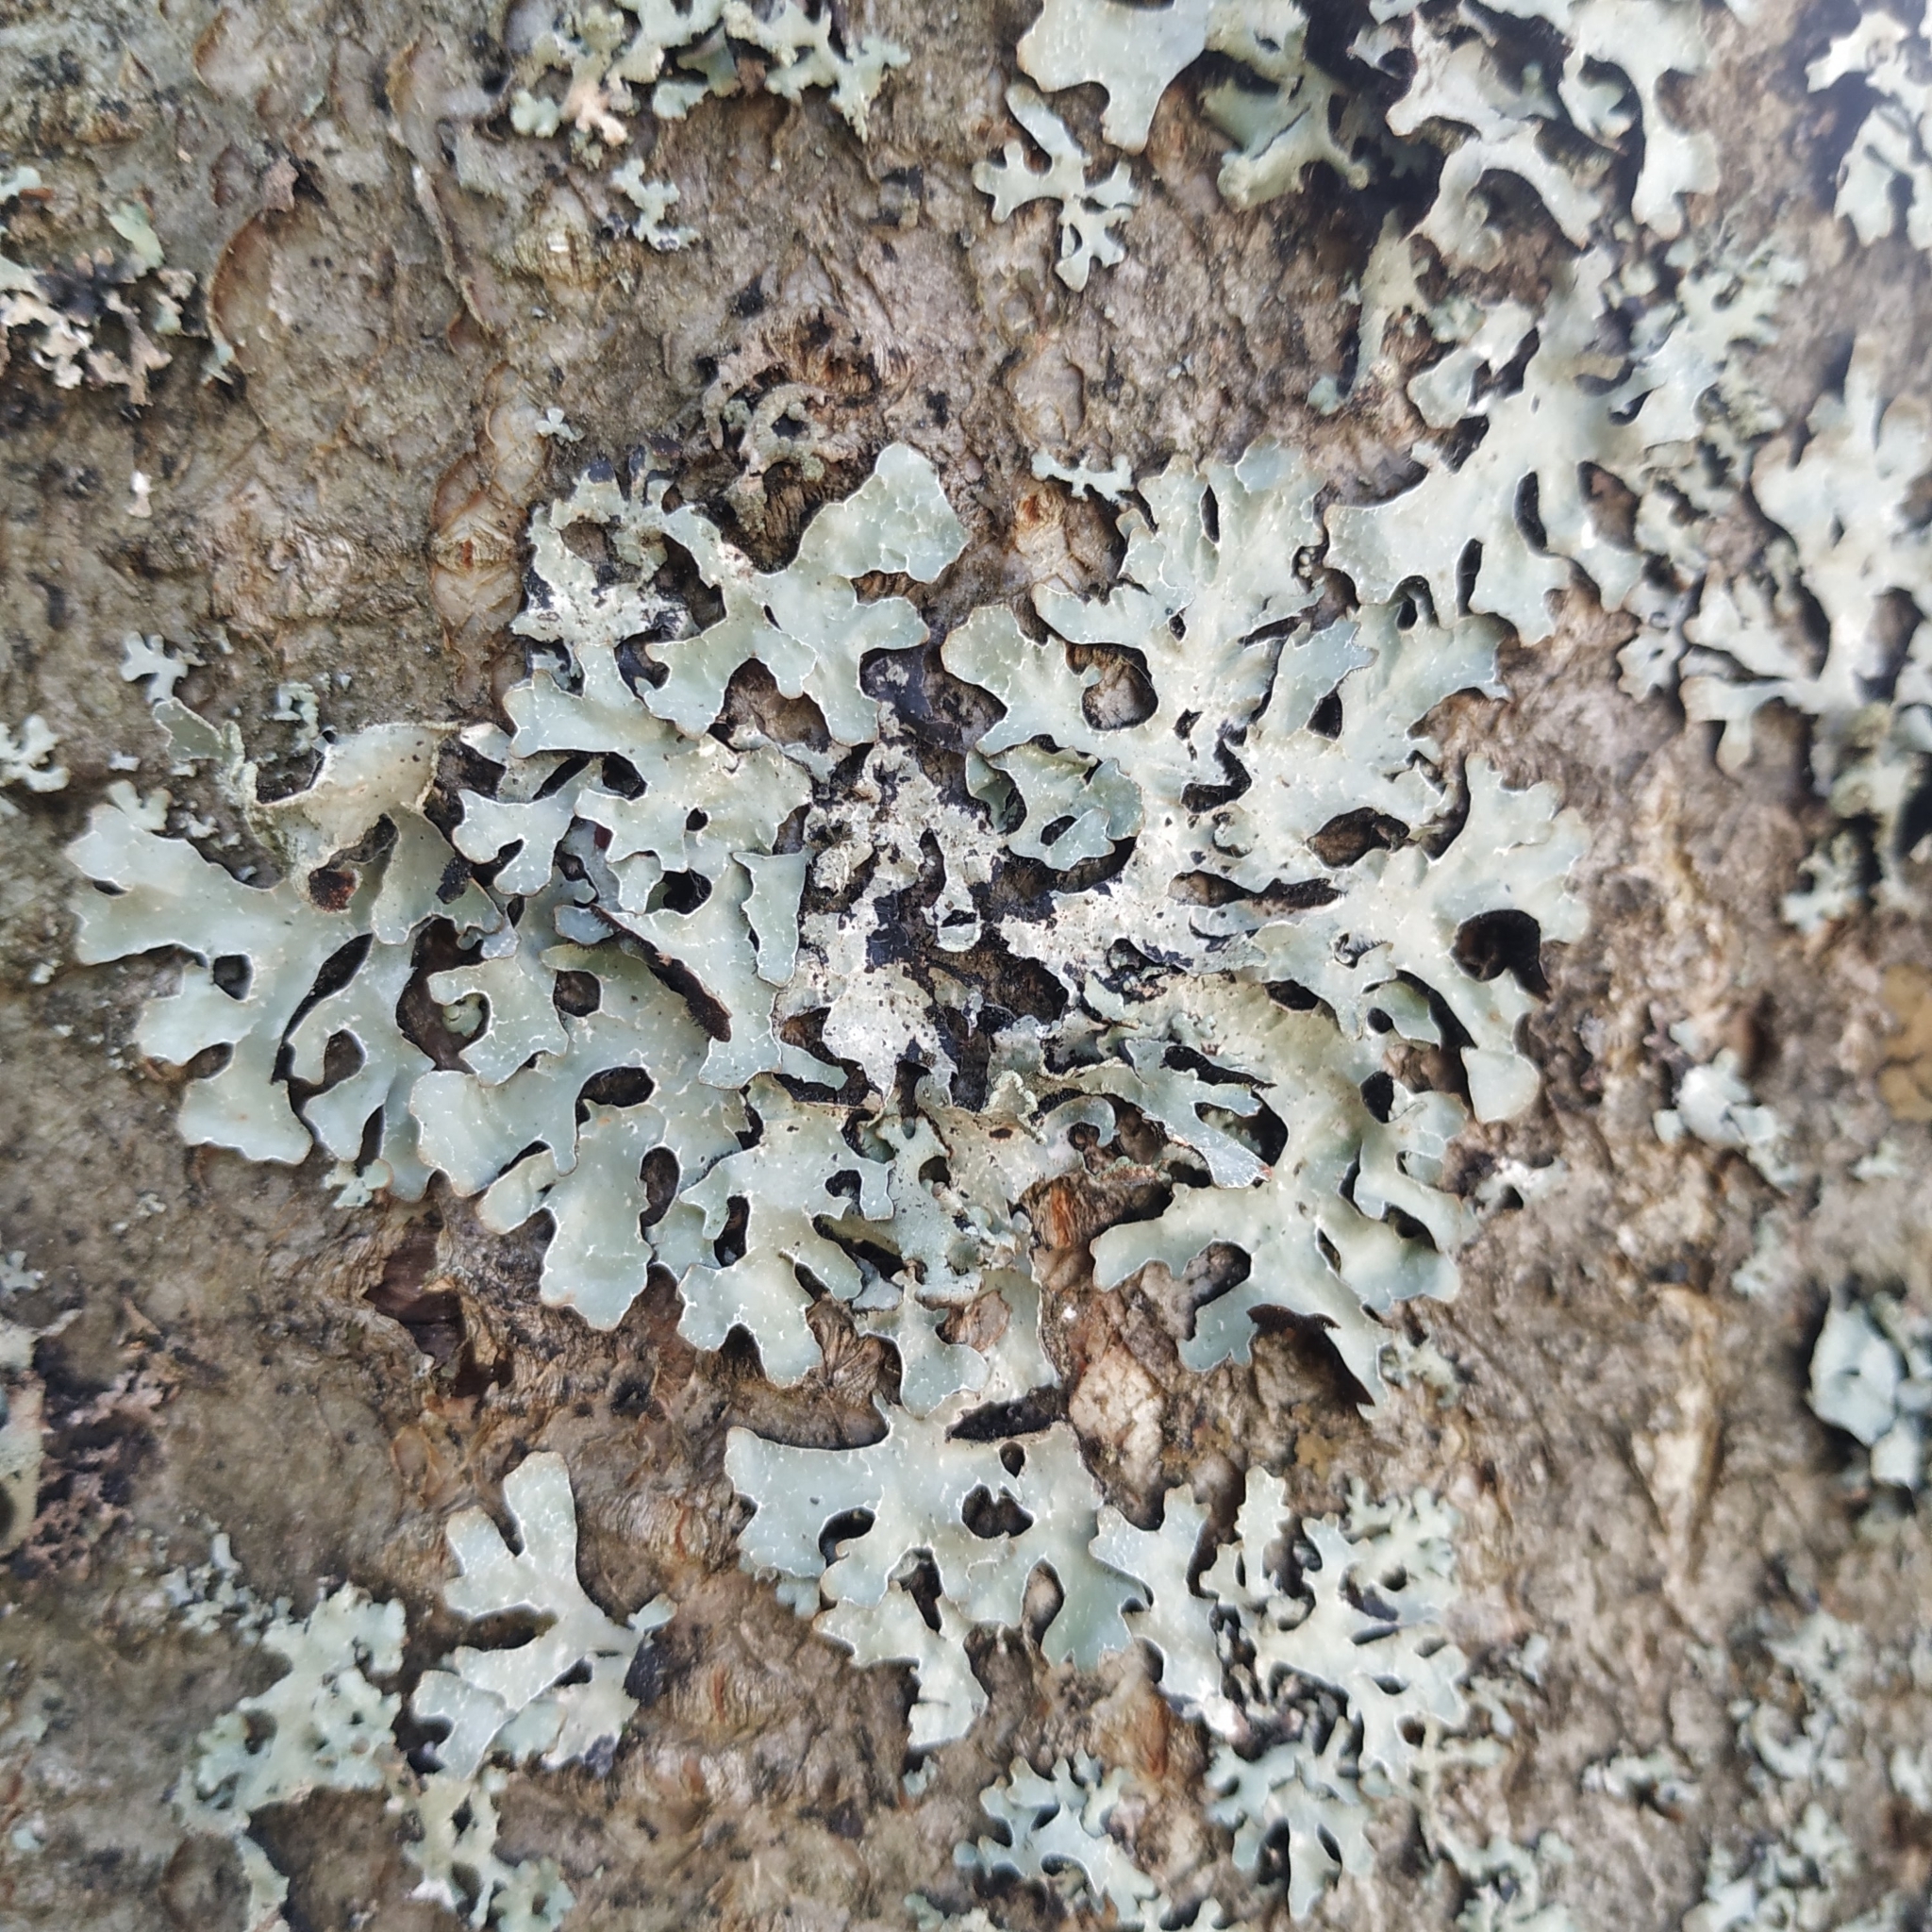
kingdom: Fungi
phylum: Ascomycota
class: Lecanoromycetes
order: Lecanorales
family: Parmeliaceae
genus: Parmelia
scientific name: Parmelia sulcata
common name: Netted shield lichen
